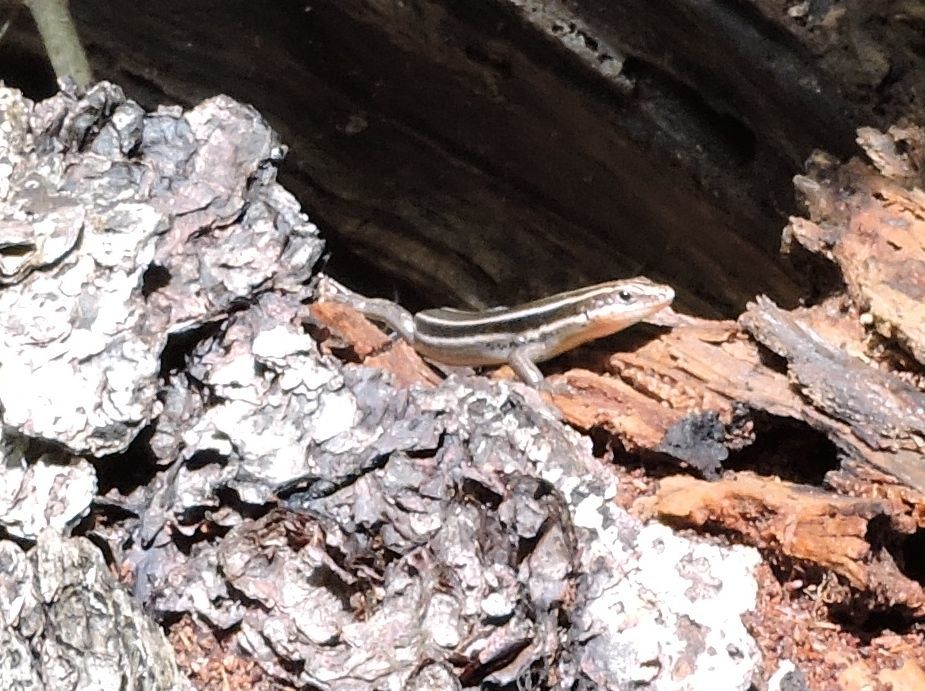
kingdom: Animalia
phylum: Chordata
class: Squamata
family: Scincidae
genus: Plestiodon
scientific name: Plestiodon fasciatus
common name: Five-lined skink
